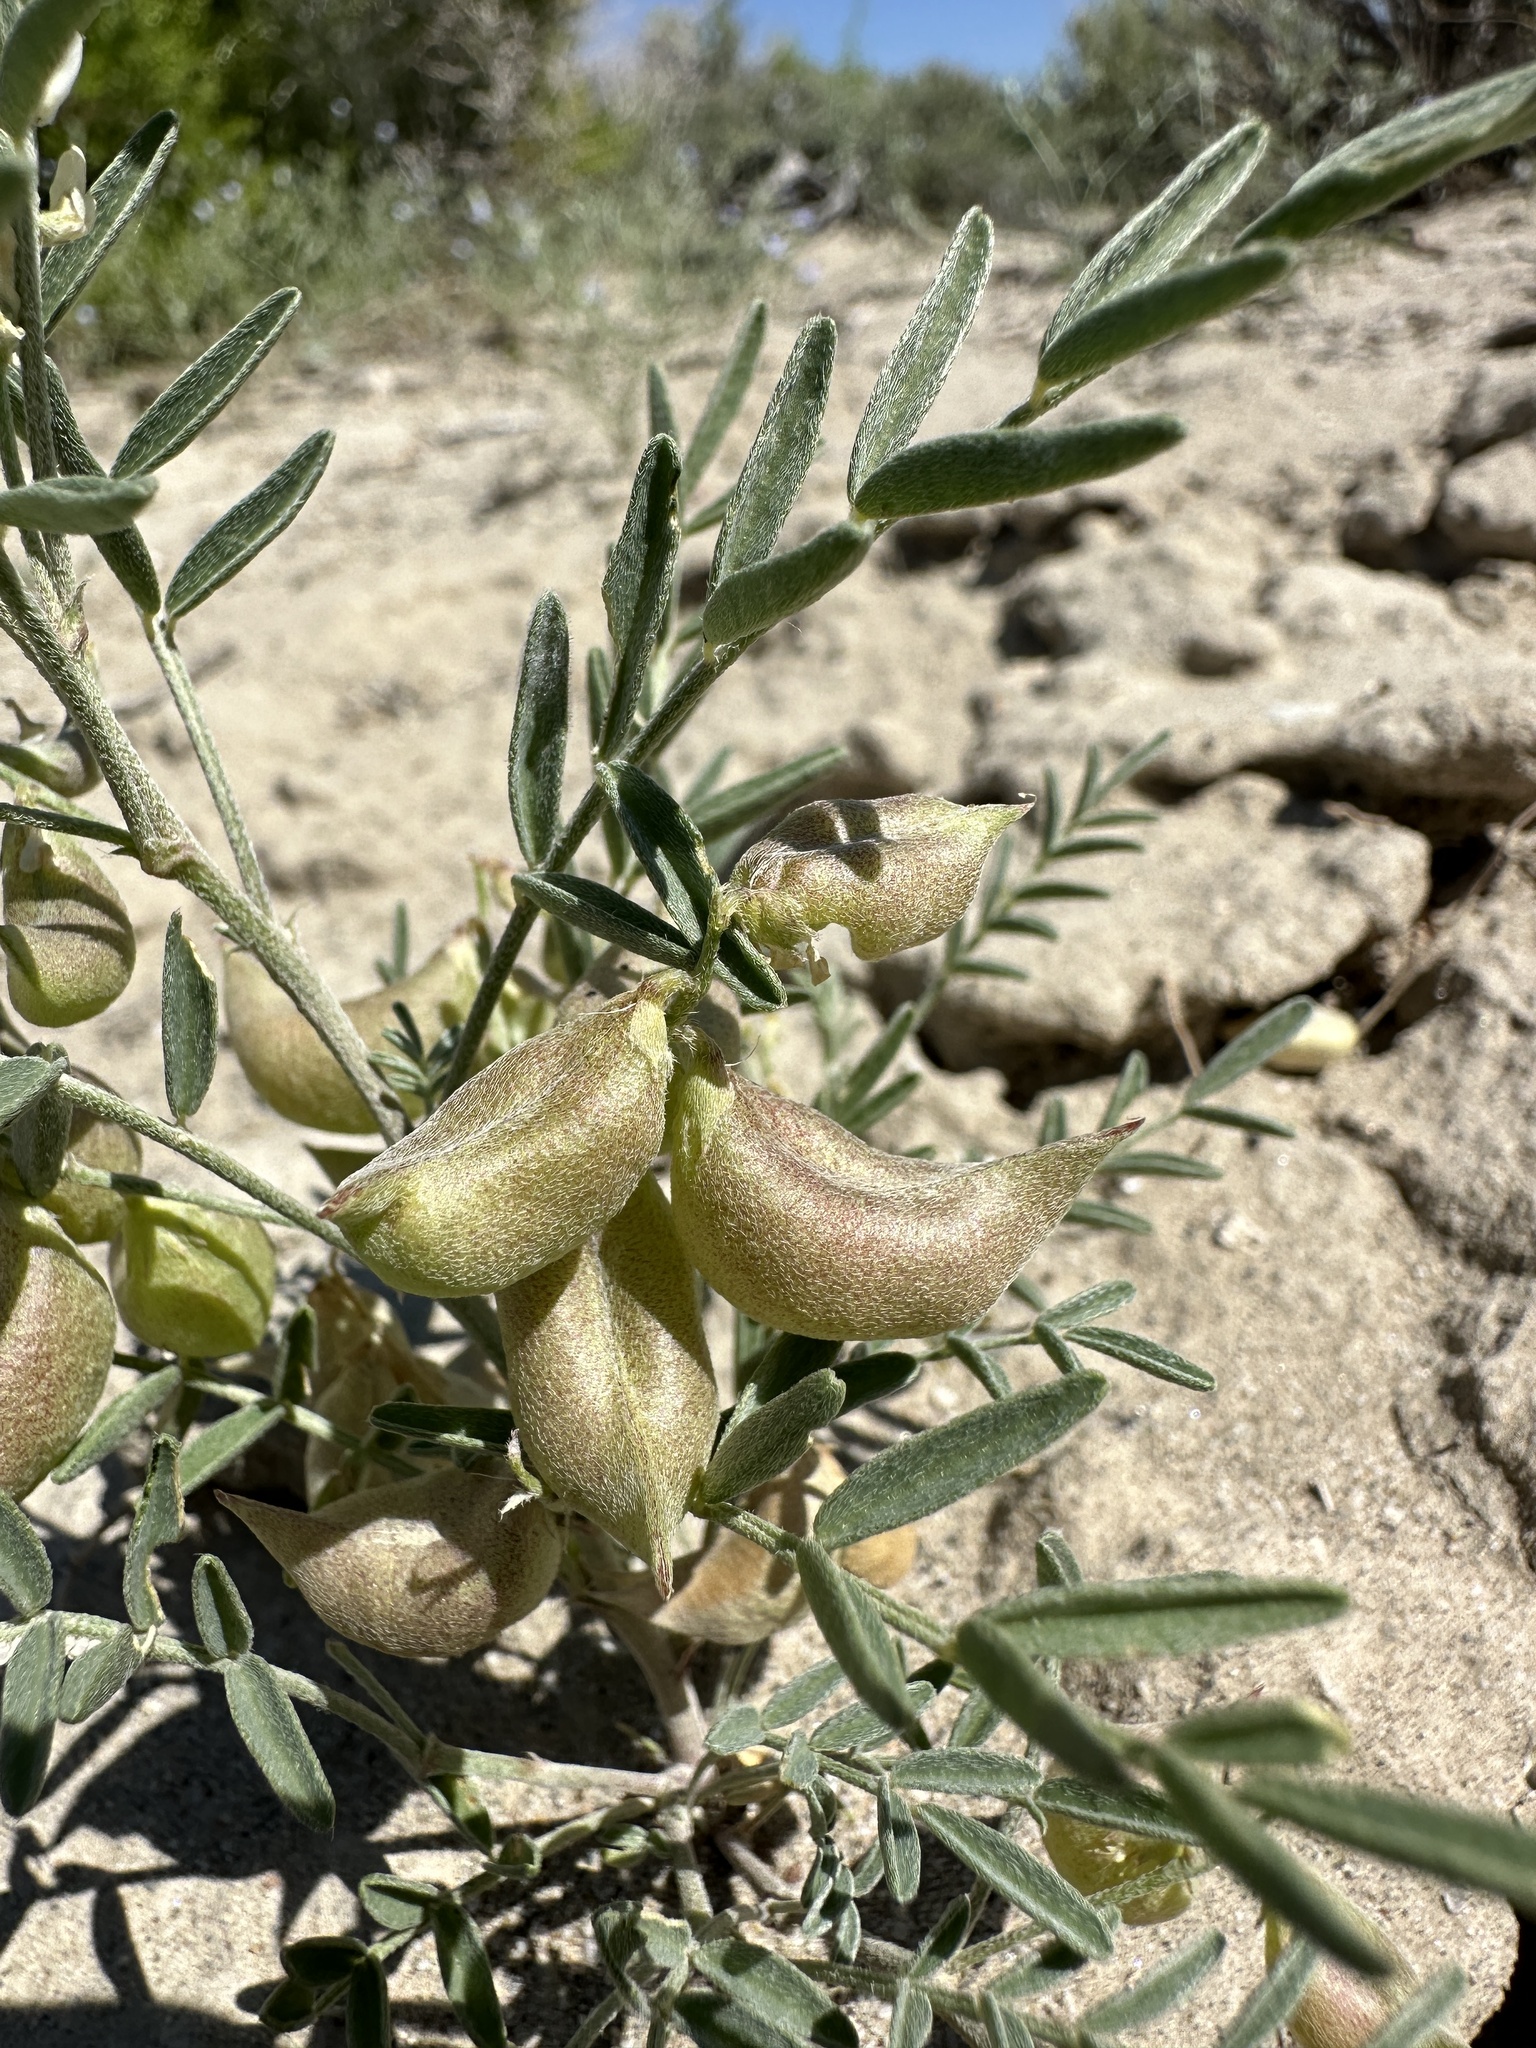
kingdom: Plantae
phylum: Tracheophyta
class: Magnoliopsida
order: Fabales
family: Fabaceae
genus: Astragalus
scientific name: Astragalus geyeri
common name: Geyer's milkvetch
